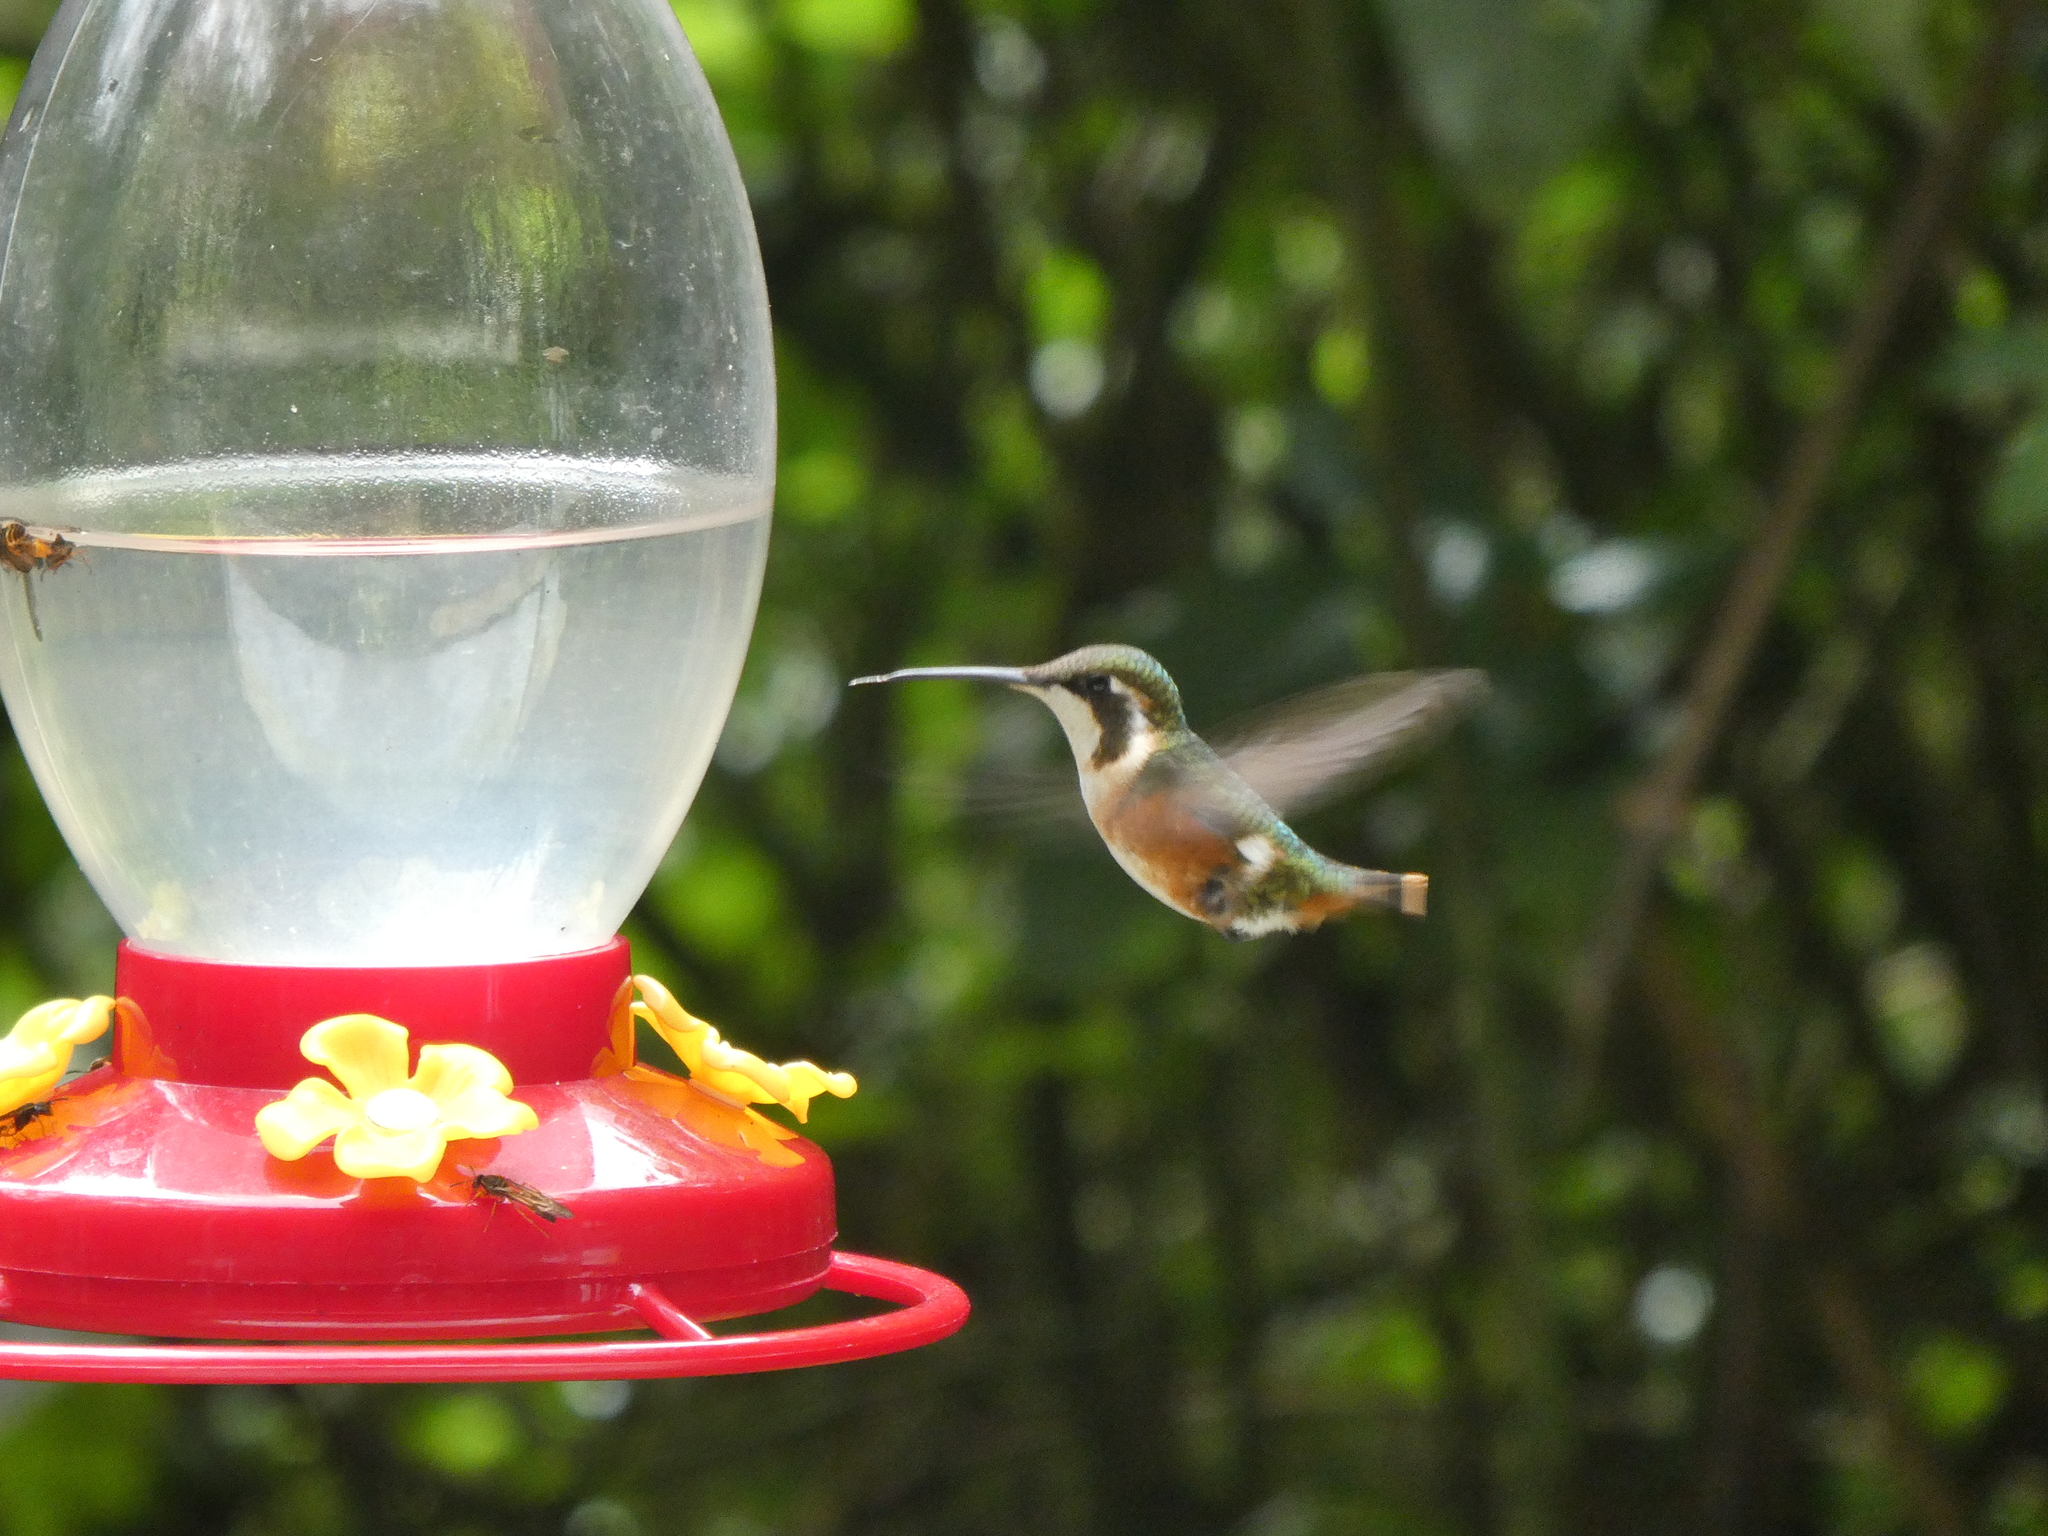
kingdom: Animalia
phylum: Chordata
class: Aves
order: Apodiformes
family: Trochilidae
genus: Chaetocercus
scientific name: Chaetocercus mulsant
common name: White-bellied woodstar
